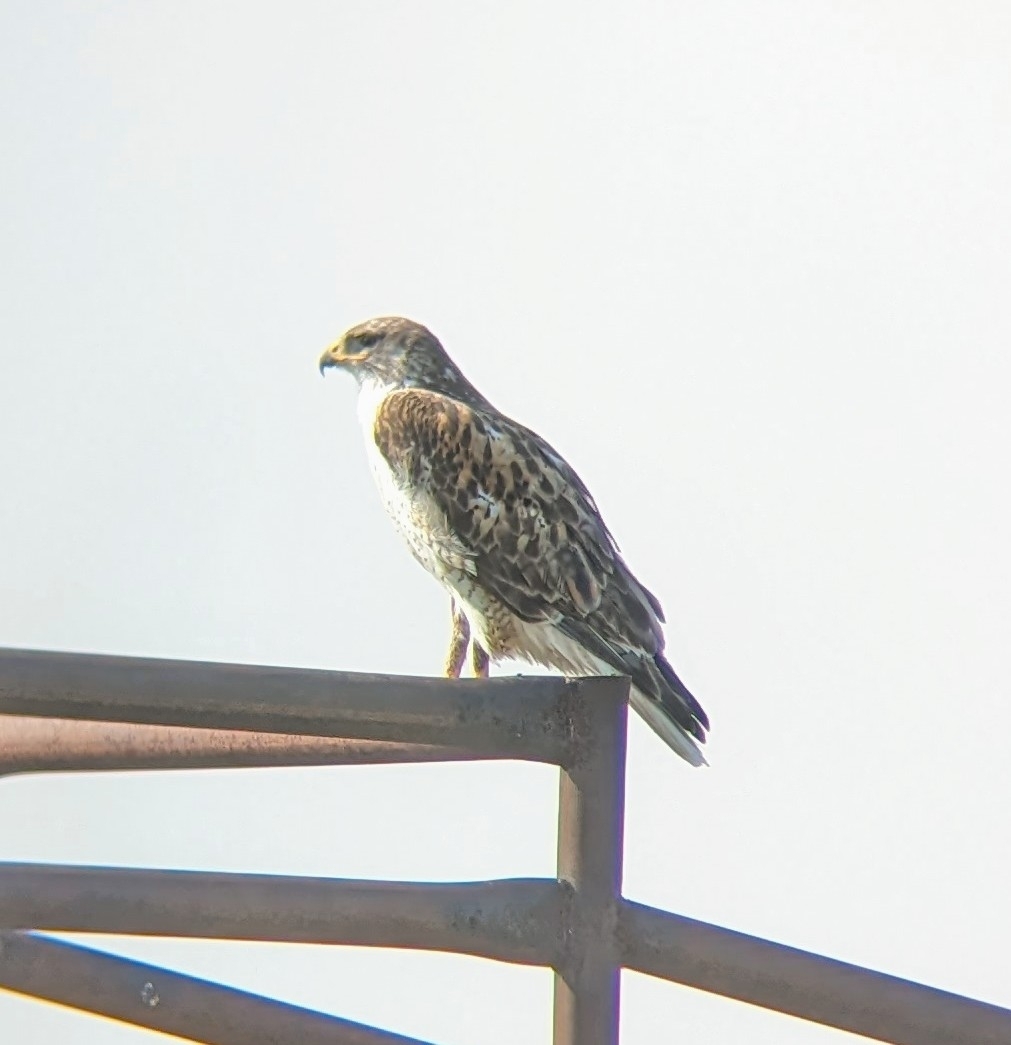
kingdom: Animalia
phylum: Chordata
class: Aves
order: Accipitriformes
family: Accipitridae
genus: Buteo
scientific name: Buteo regalis
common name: Ferruginous hawk
